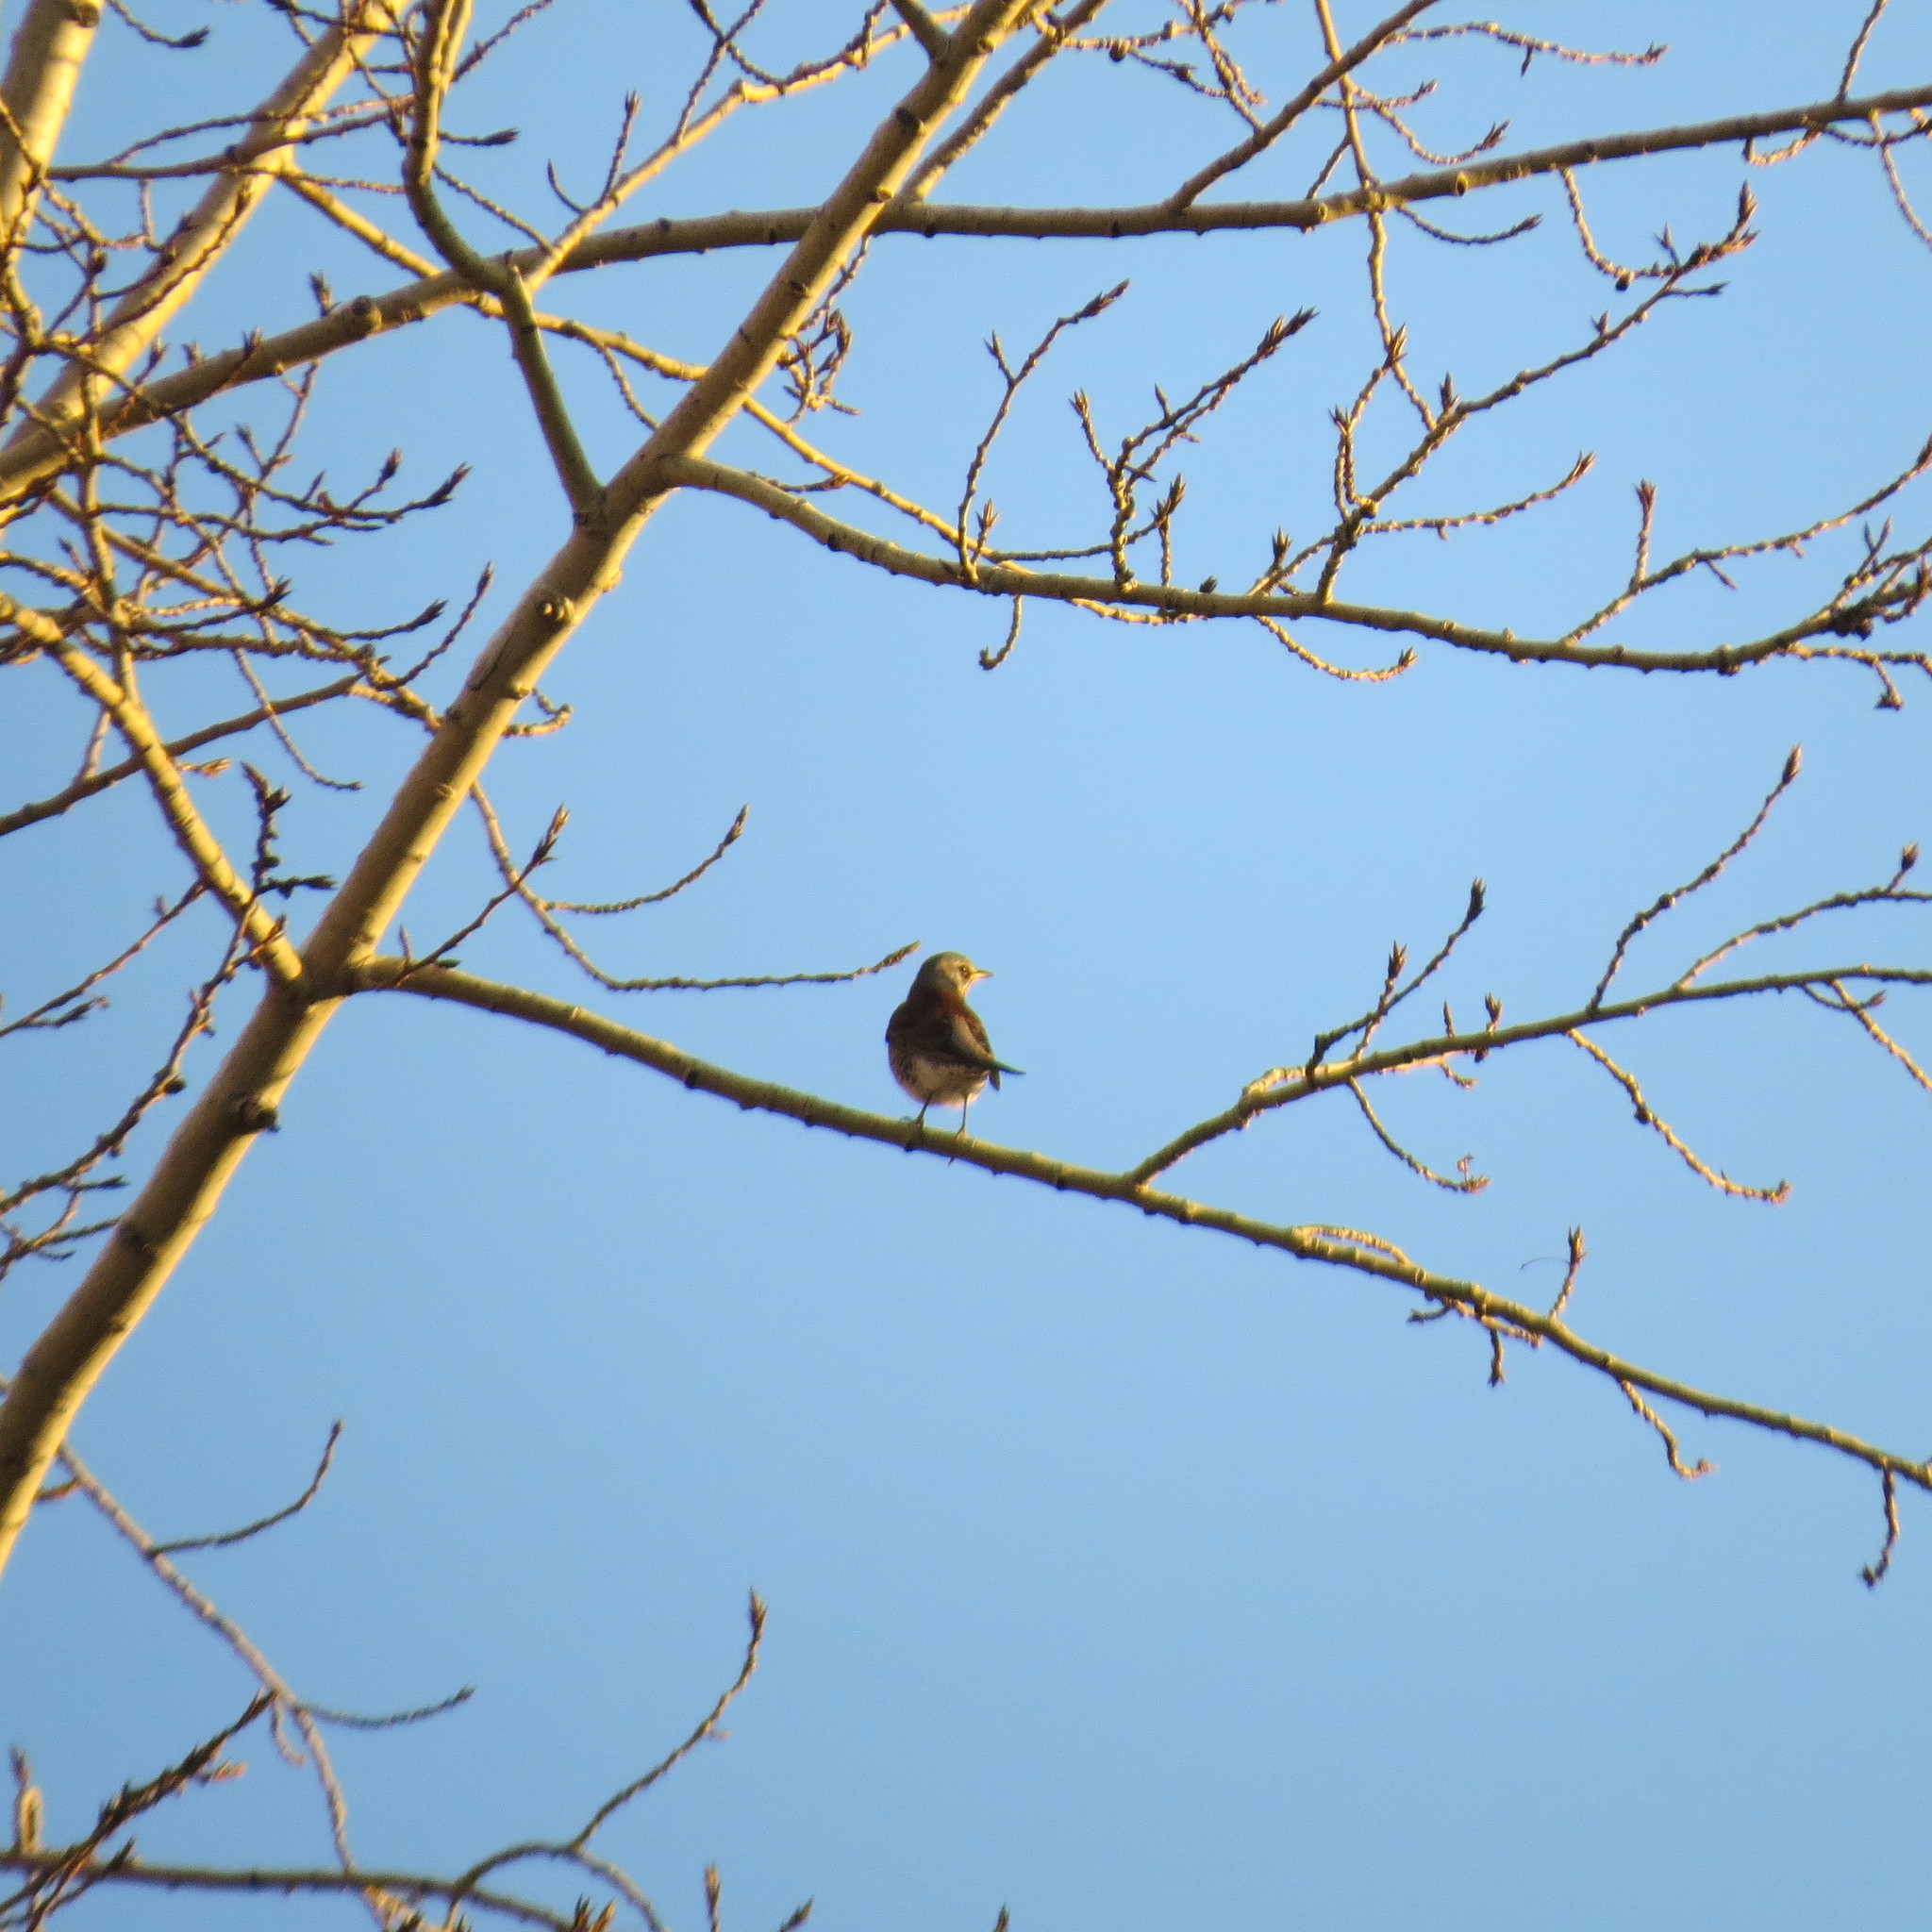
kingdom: Animalia
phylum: Chordata
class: Aves
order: Passeriformes
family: Turdidae
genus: Turdus
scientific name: Turdus pilaris
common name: Fieldfare
